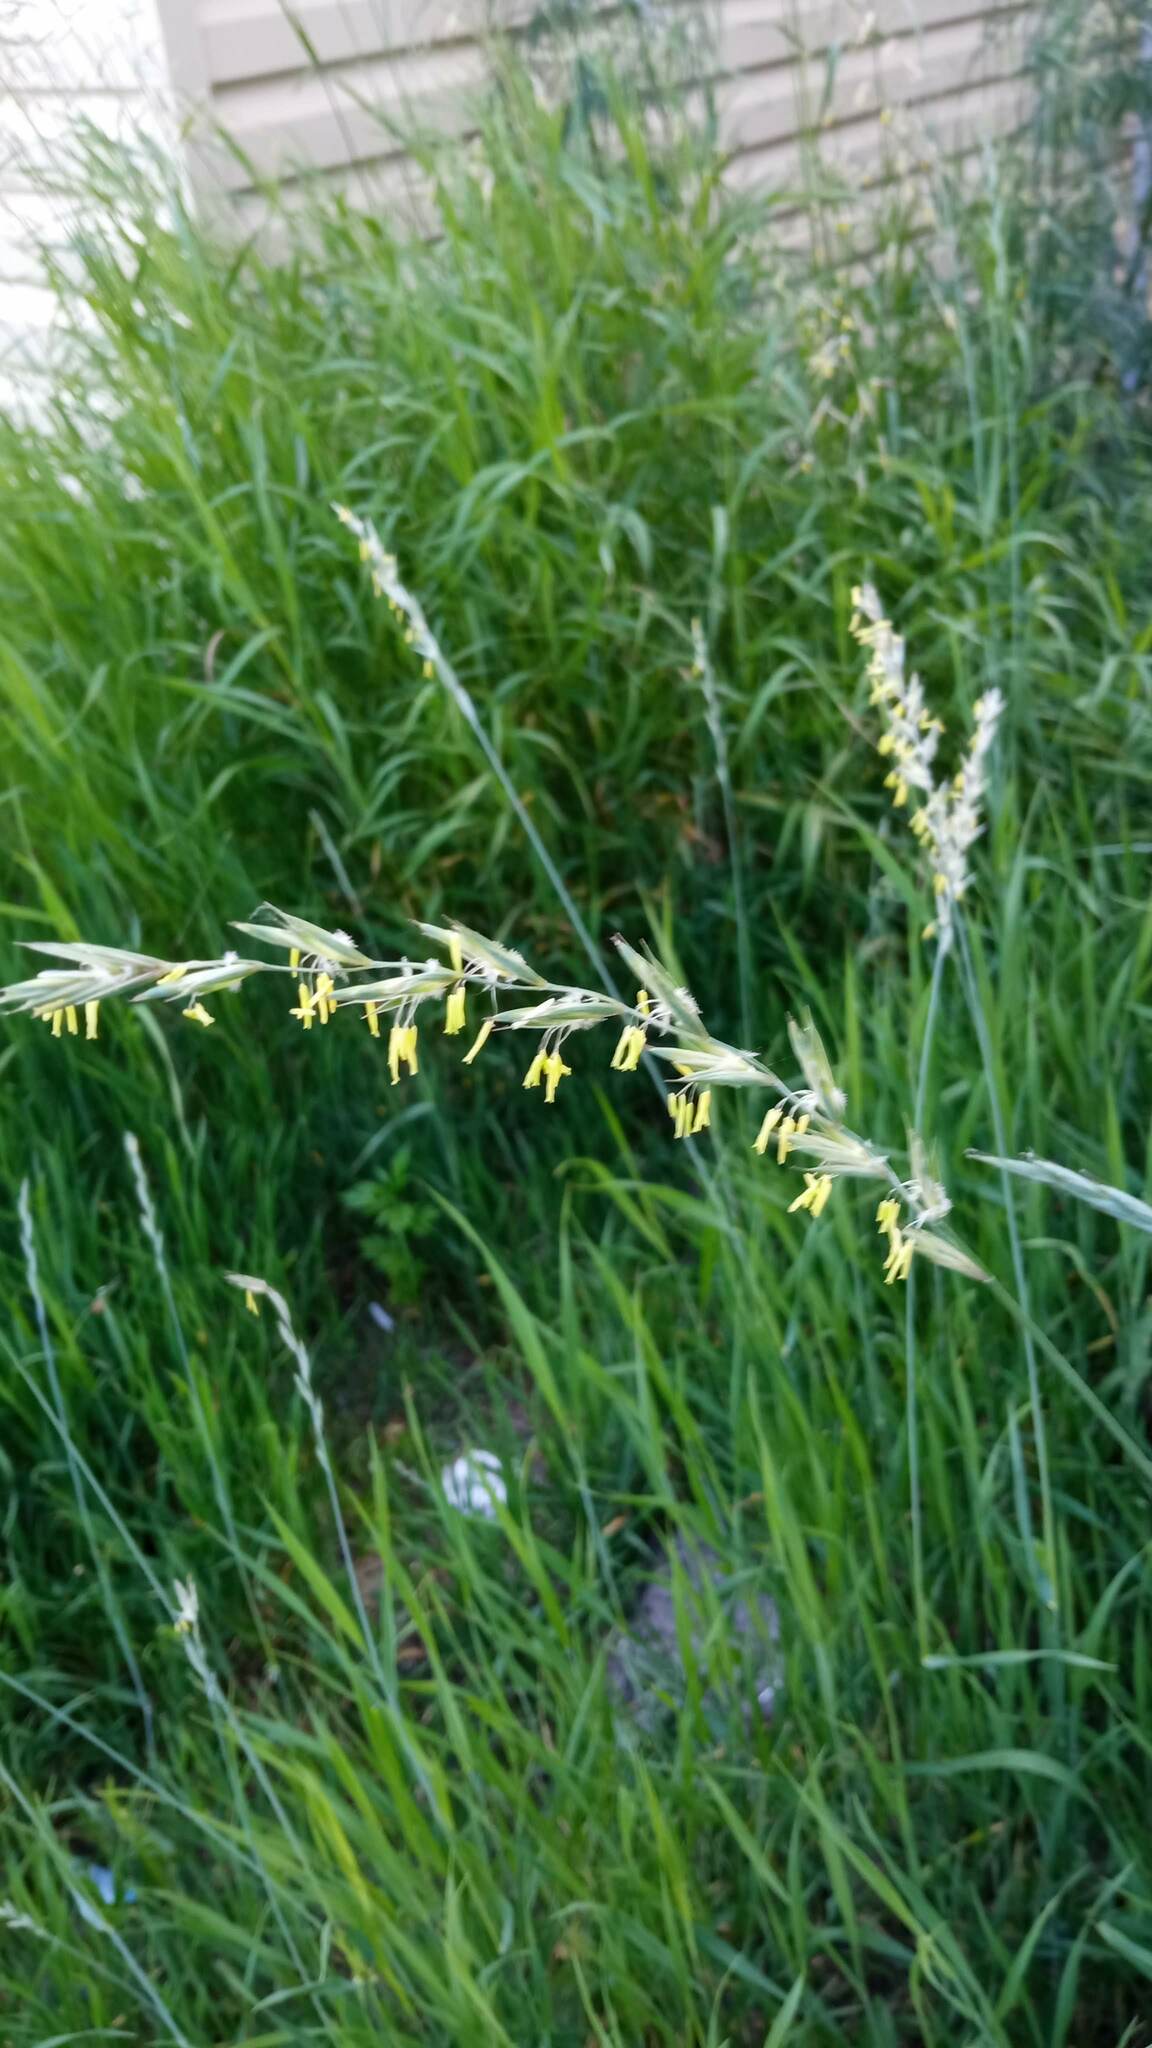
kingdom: Plantae
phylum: Tracheophyta
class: Liliopsida
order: Poales
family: Poaceae
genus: Elymus
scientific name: Elymus repens
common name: Quackgrass
